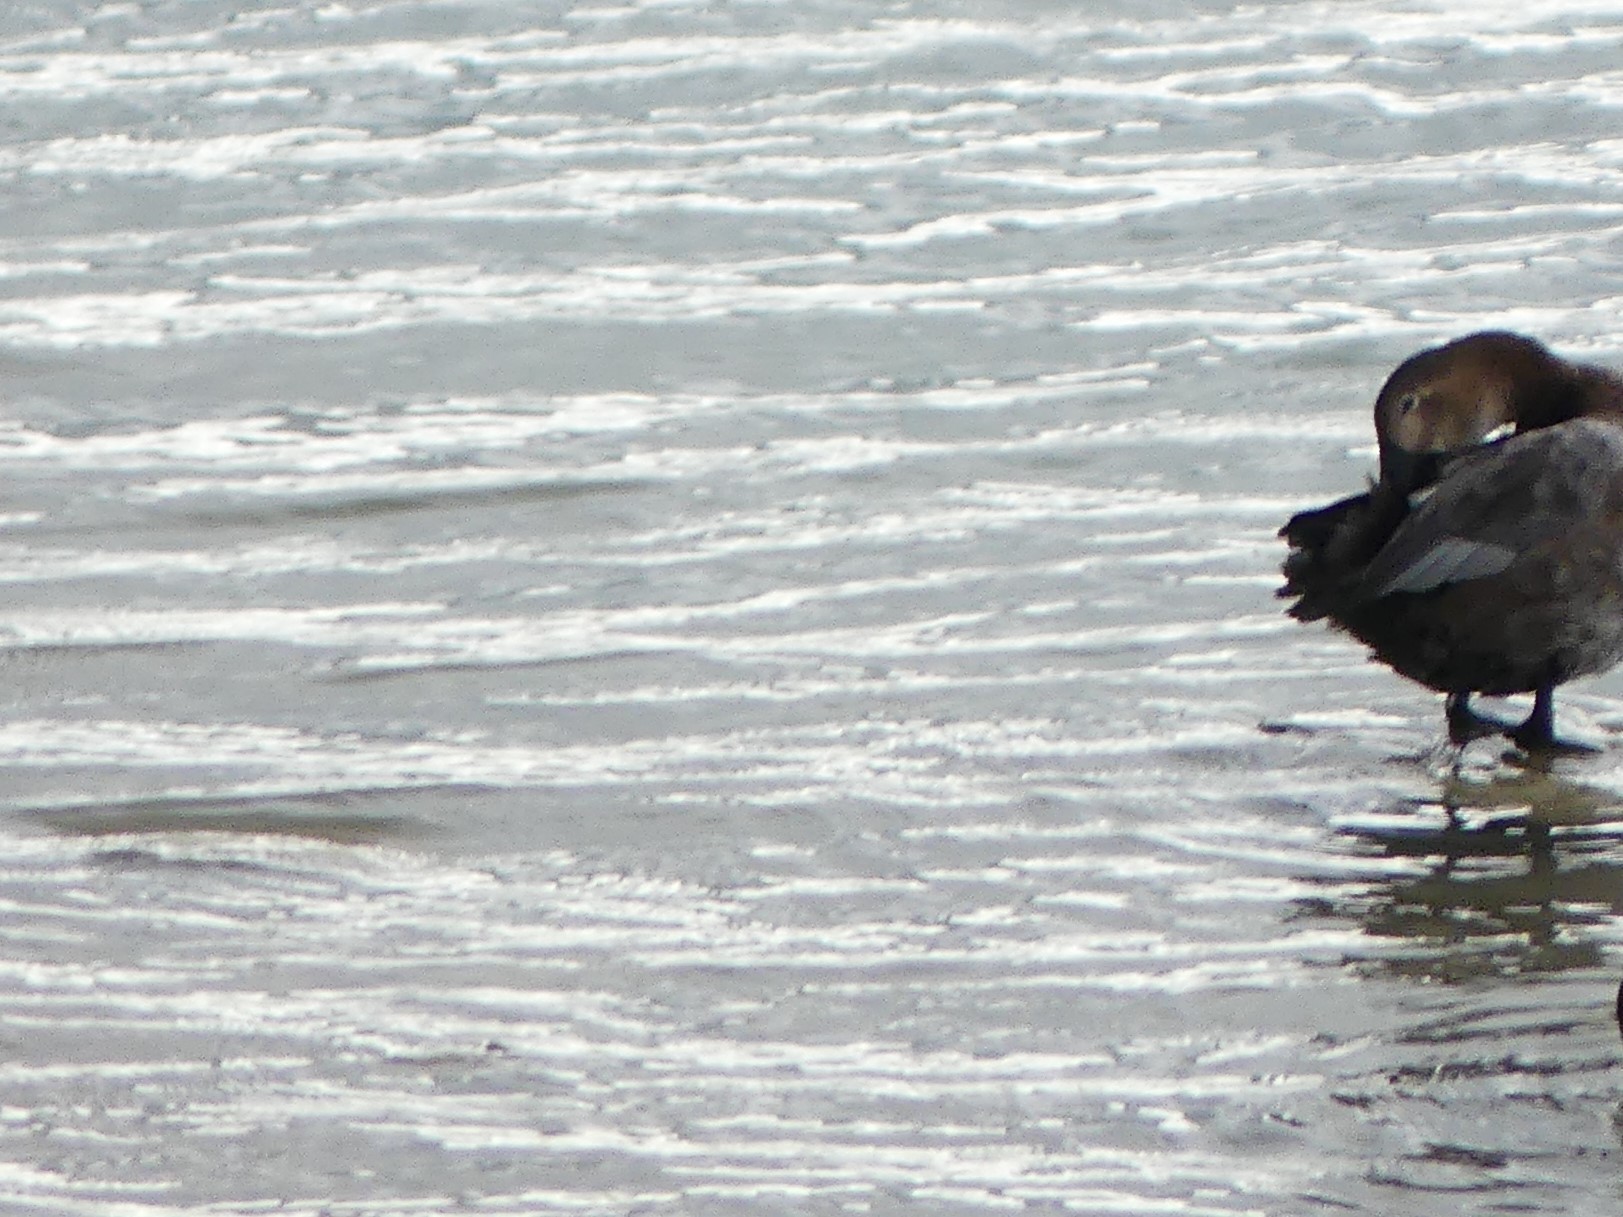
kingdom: Animalia
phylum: Chordata
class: Aves
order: Anseriformes
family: Anatidae
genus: Aythya
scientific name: Aythya ferina
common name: Common pochard
